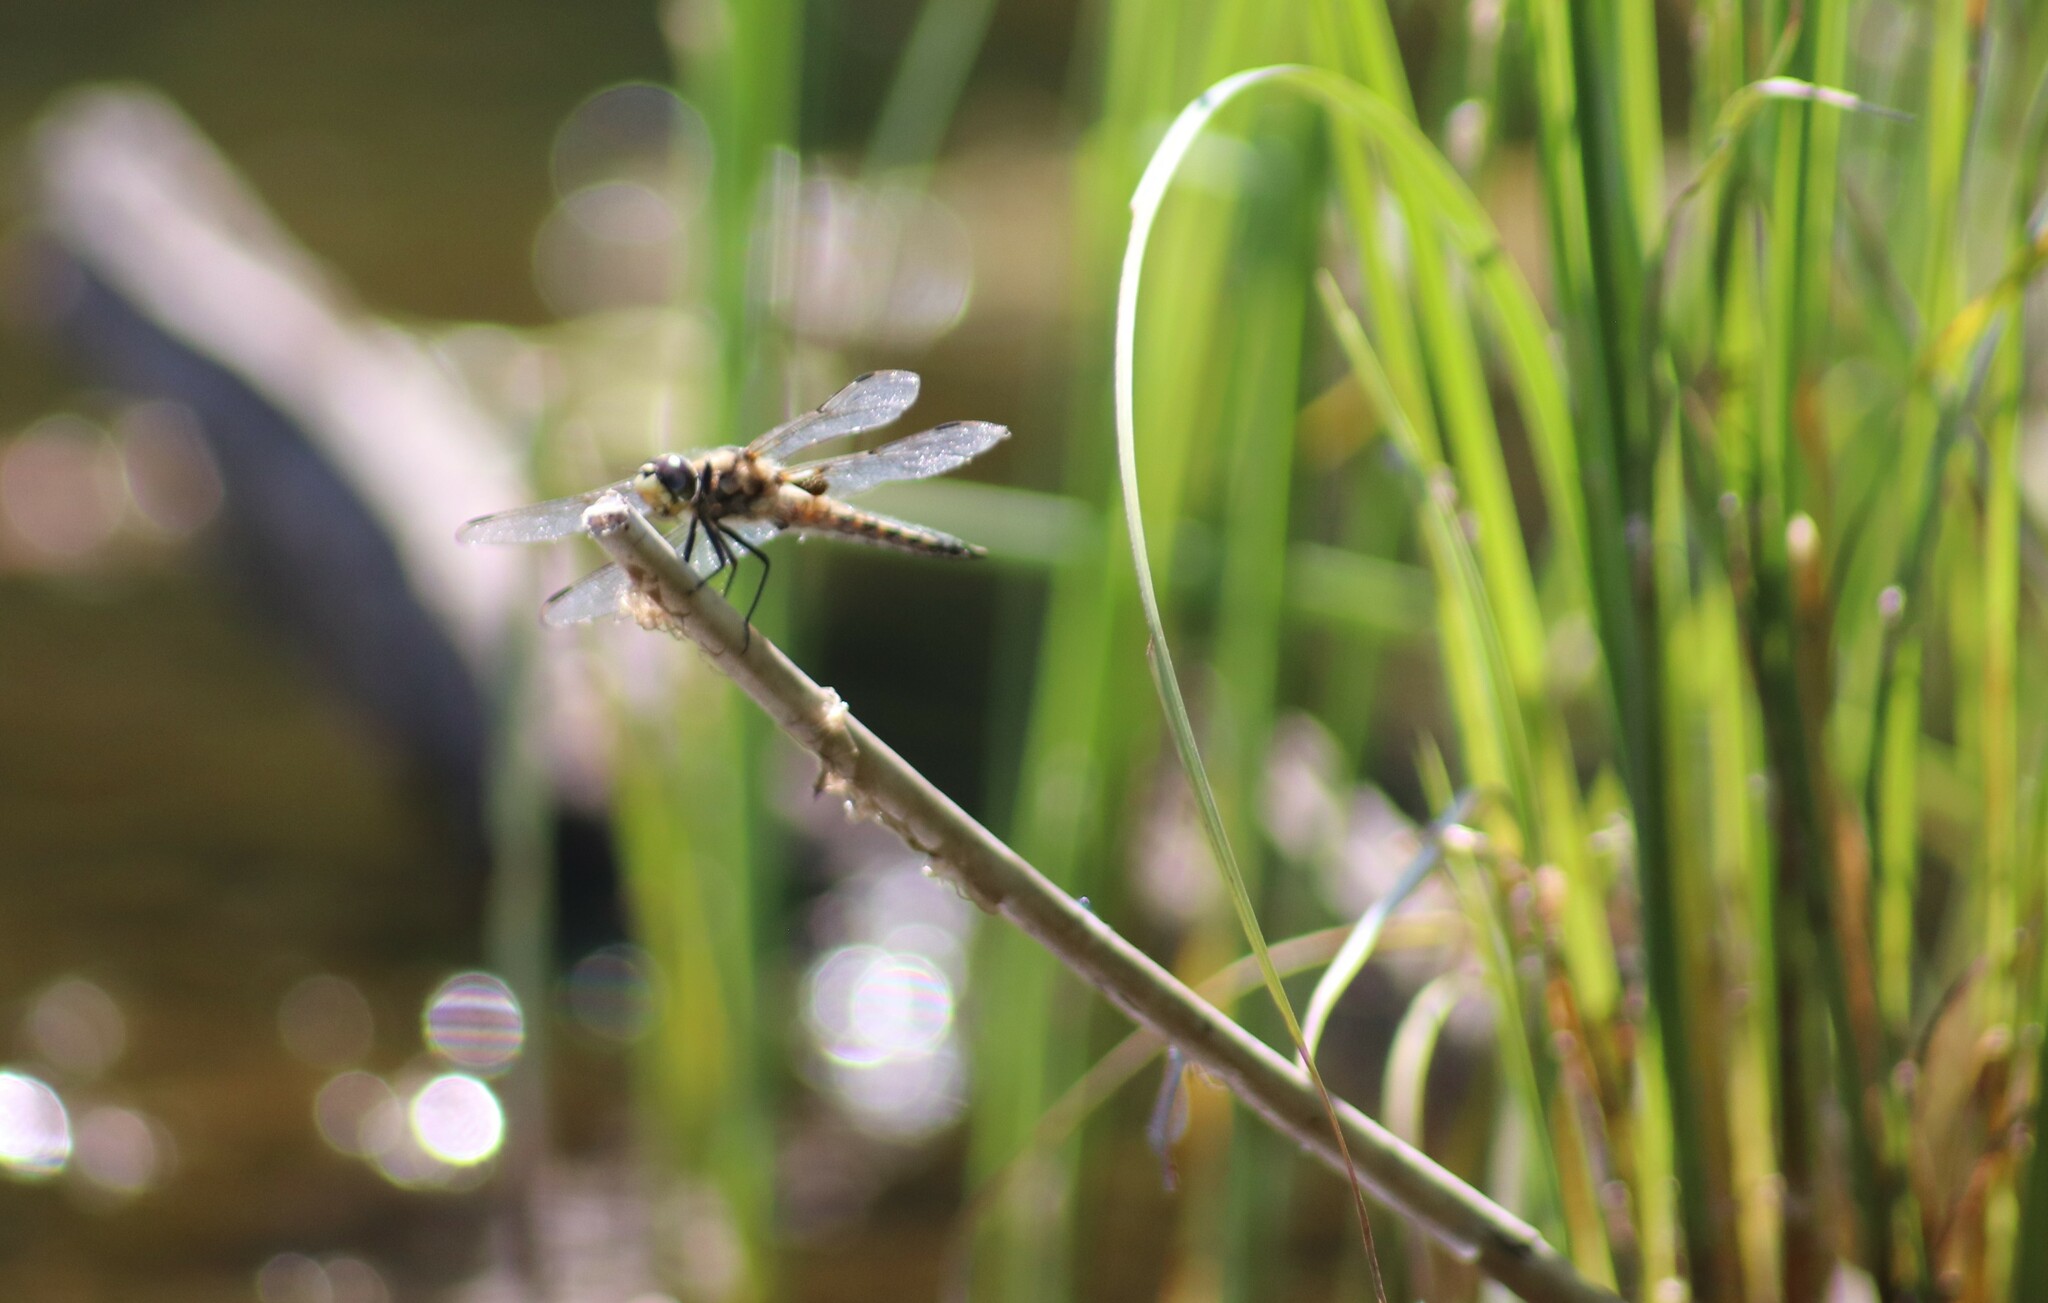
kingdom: Animalia
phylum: Arthropoda
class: Insecta
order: Odonata
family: Libellulidae
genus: Libellula
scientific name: Libellula quadrimaculata
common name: Four-spotted chaser
